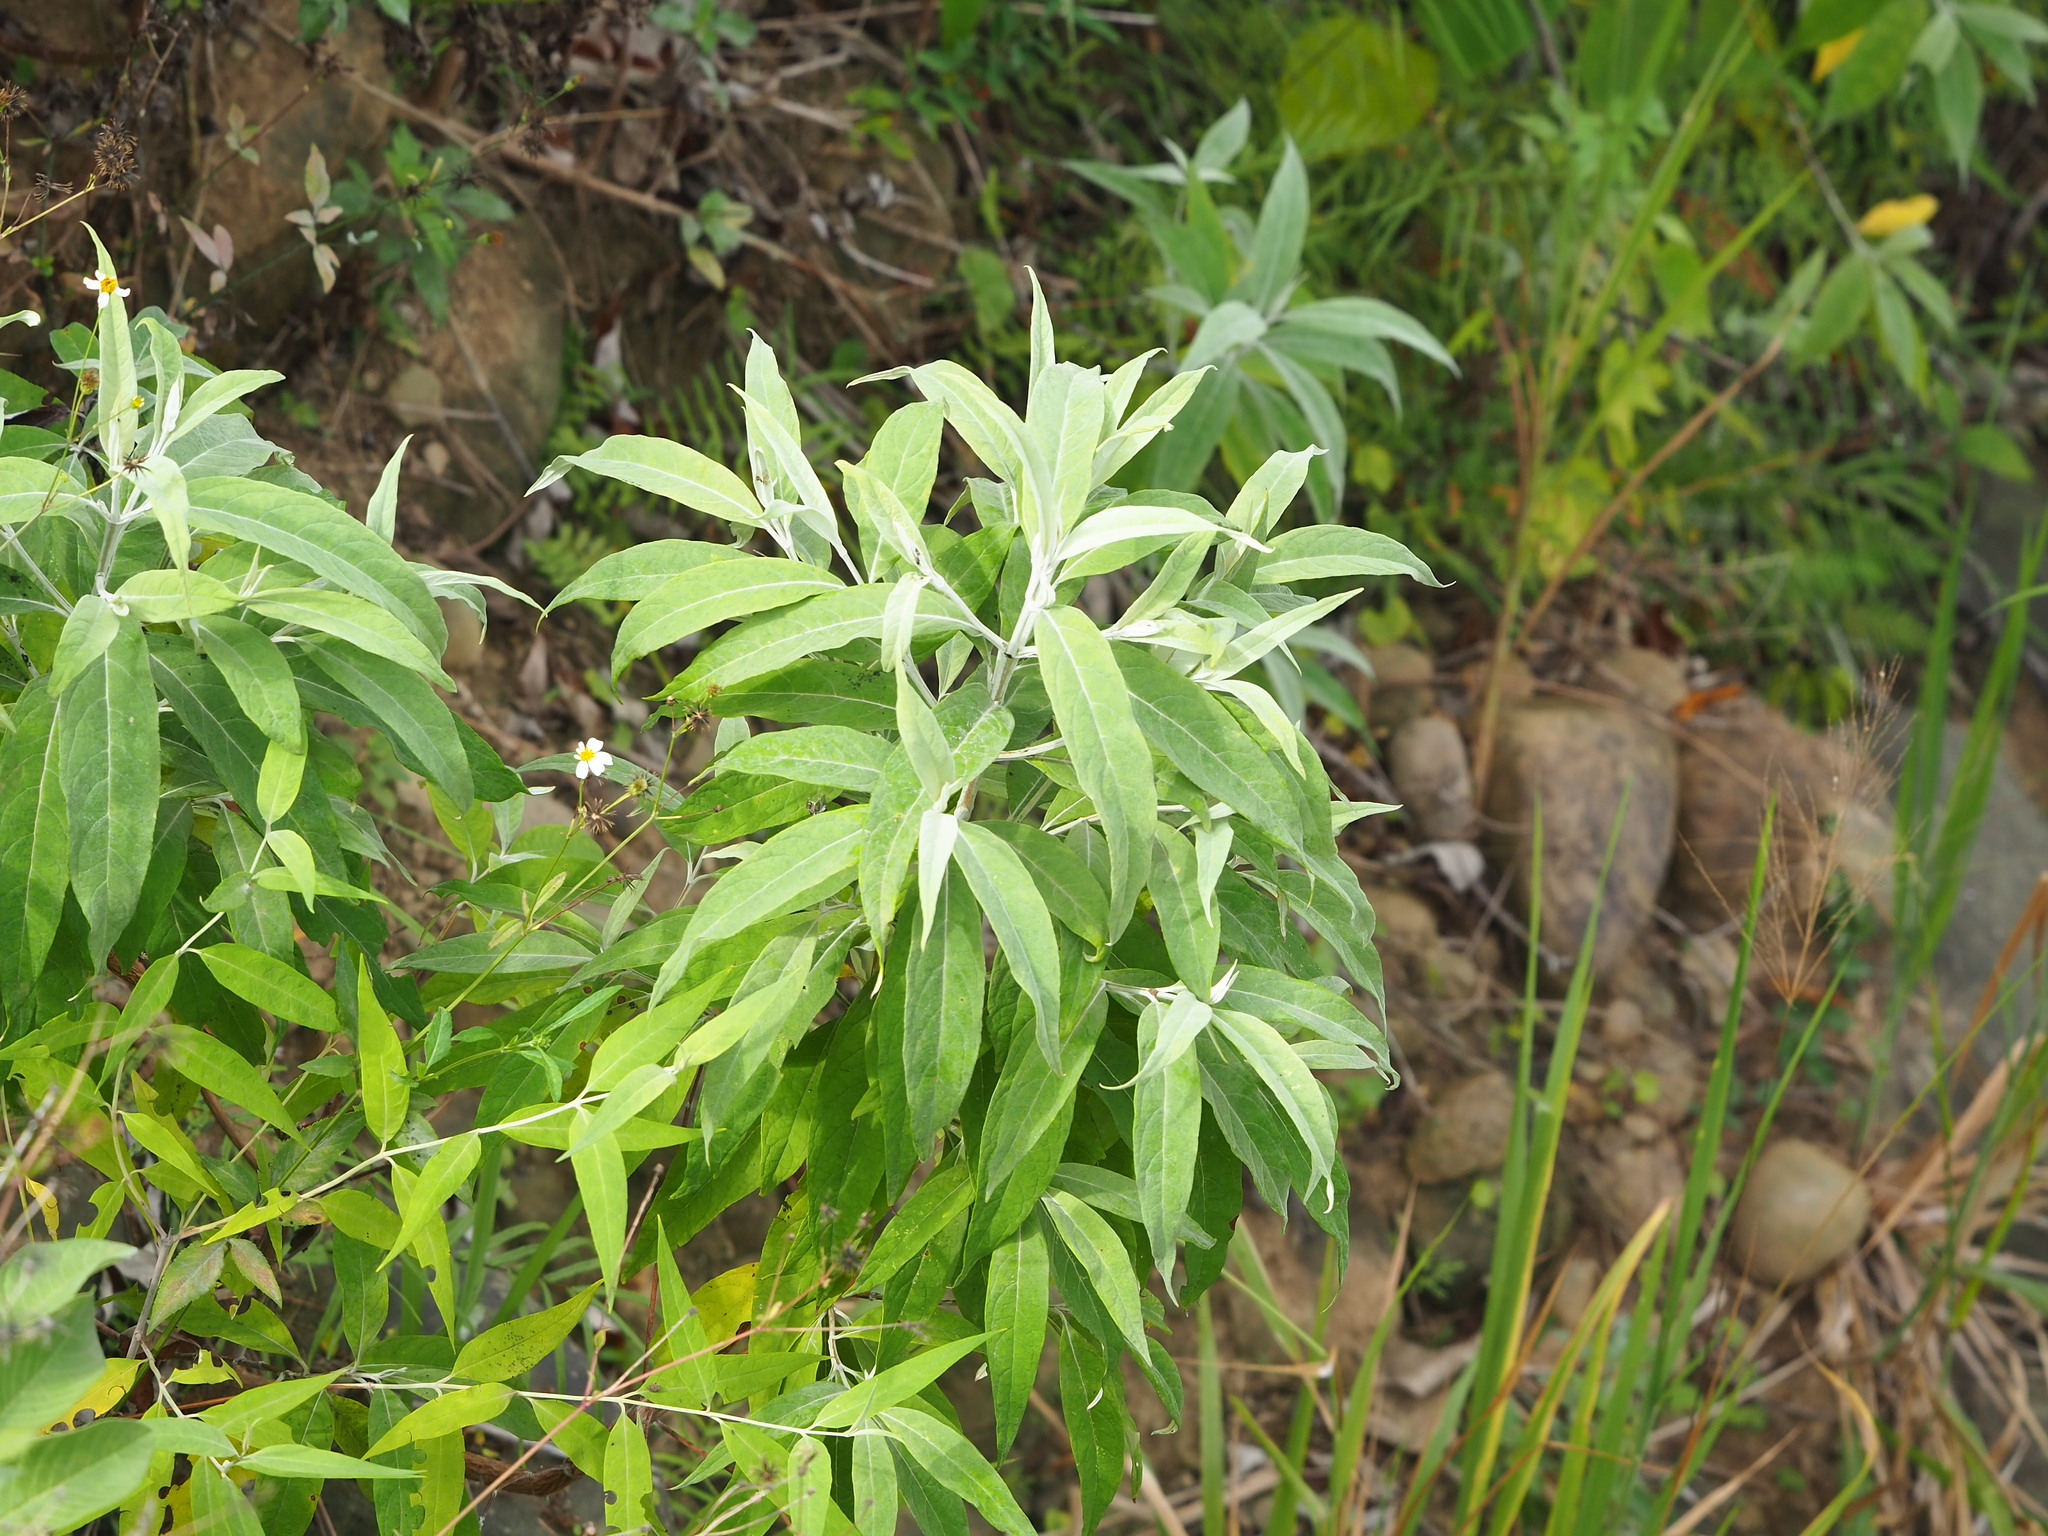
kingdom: Plantae
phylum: Tracheophyta
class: Magnoliopsida
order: Lamiales
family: Scrophulariaceae
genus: Buddleja
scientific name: Buddleja asiatica
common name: Dog tail
